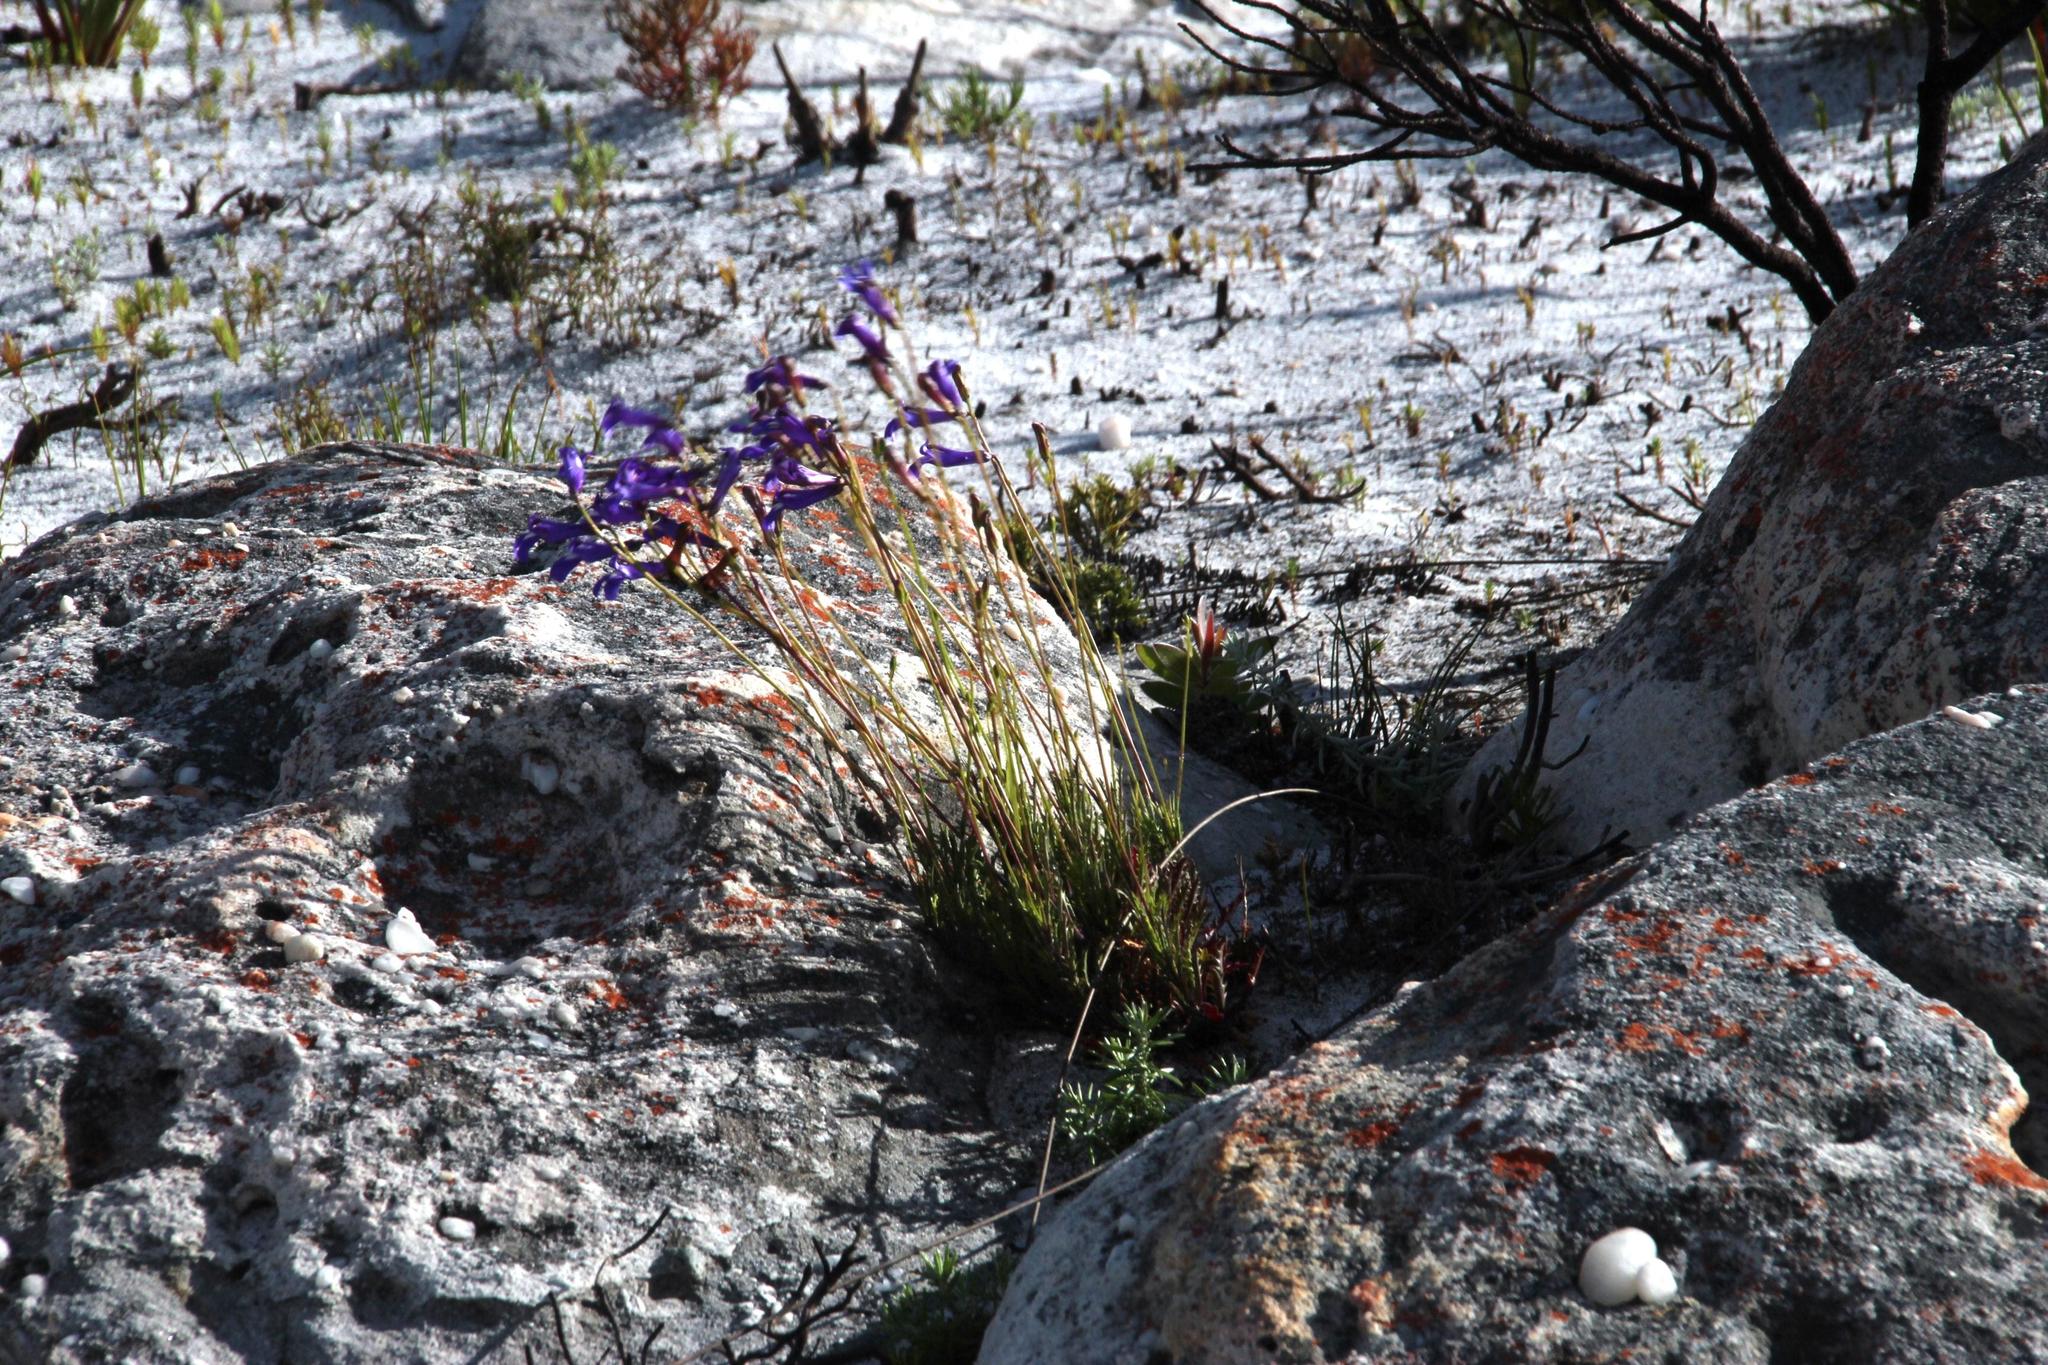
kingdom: Plantae
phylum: Tracheophyta
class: Magnoliopsida
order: Asterales
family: Campanulaceae
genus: Lobelia
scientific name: Lobelia coronopifolia
